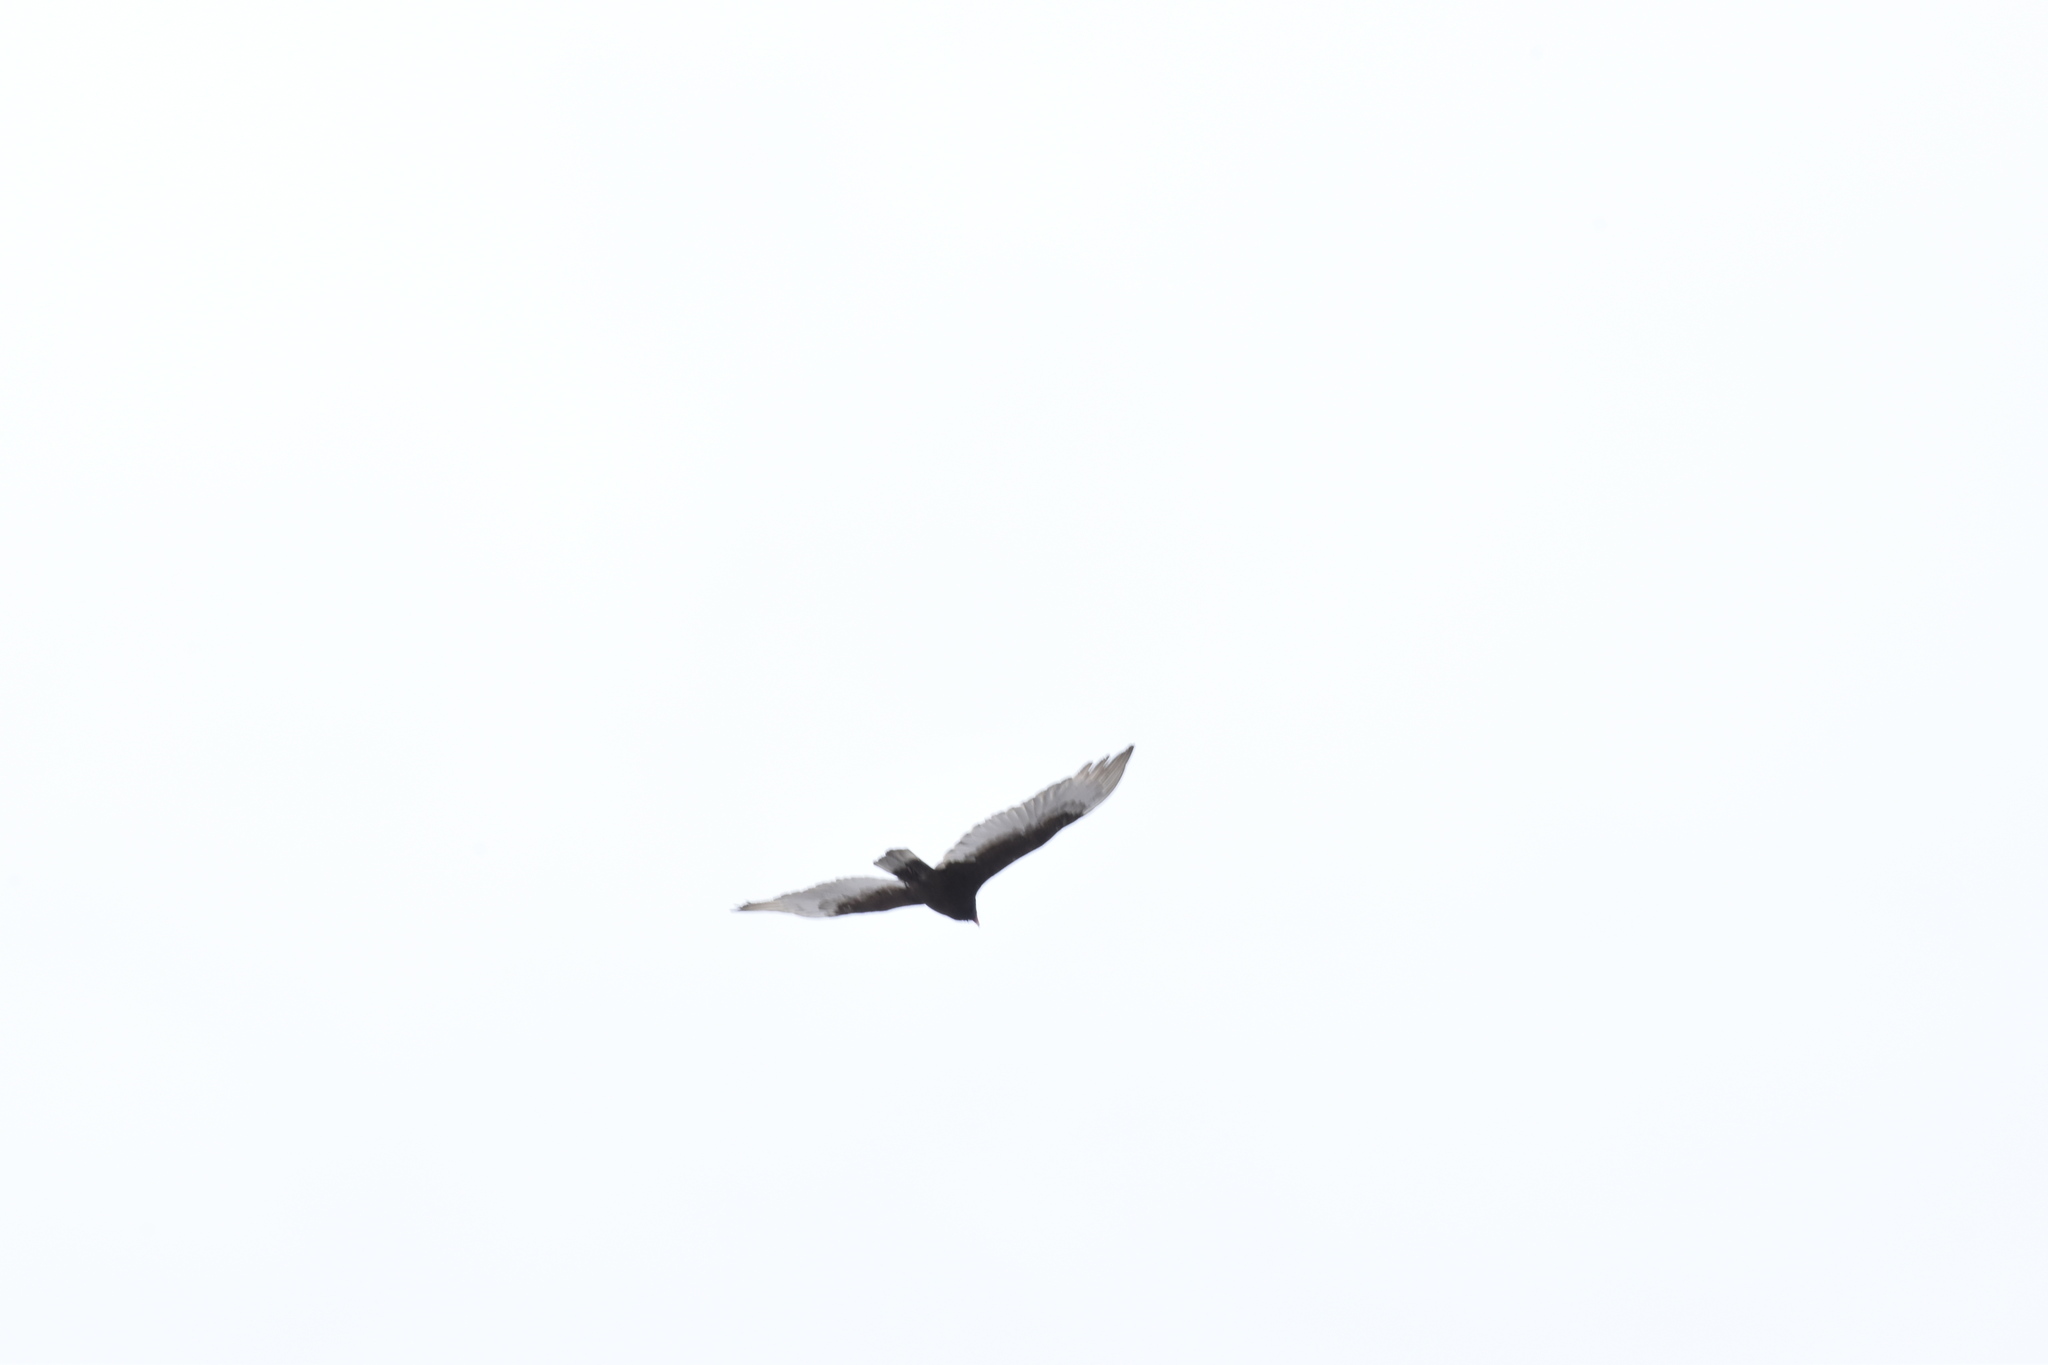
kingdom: Animalia
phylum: Chordata
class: Aves
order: Accipitriformes
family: Cathartidae
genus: Cathartes
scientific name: Cathartes aura
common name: Turkey vulture
